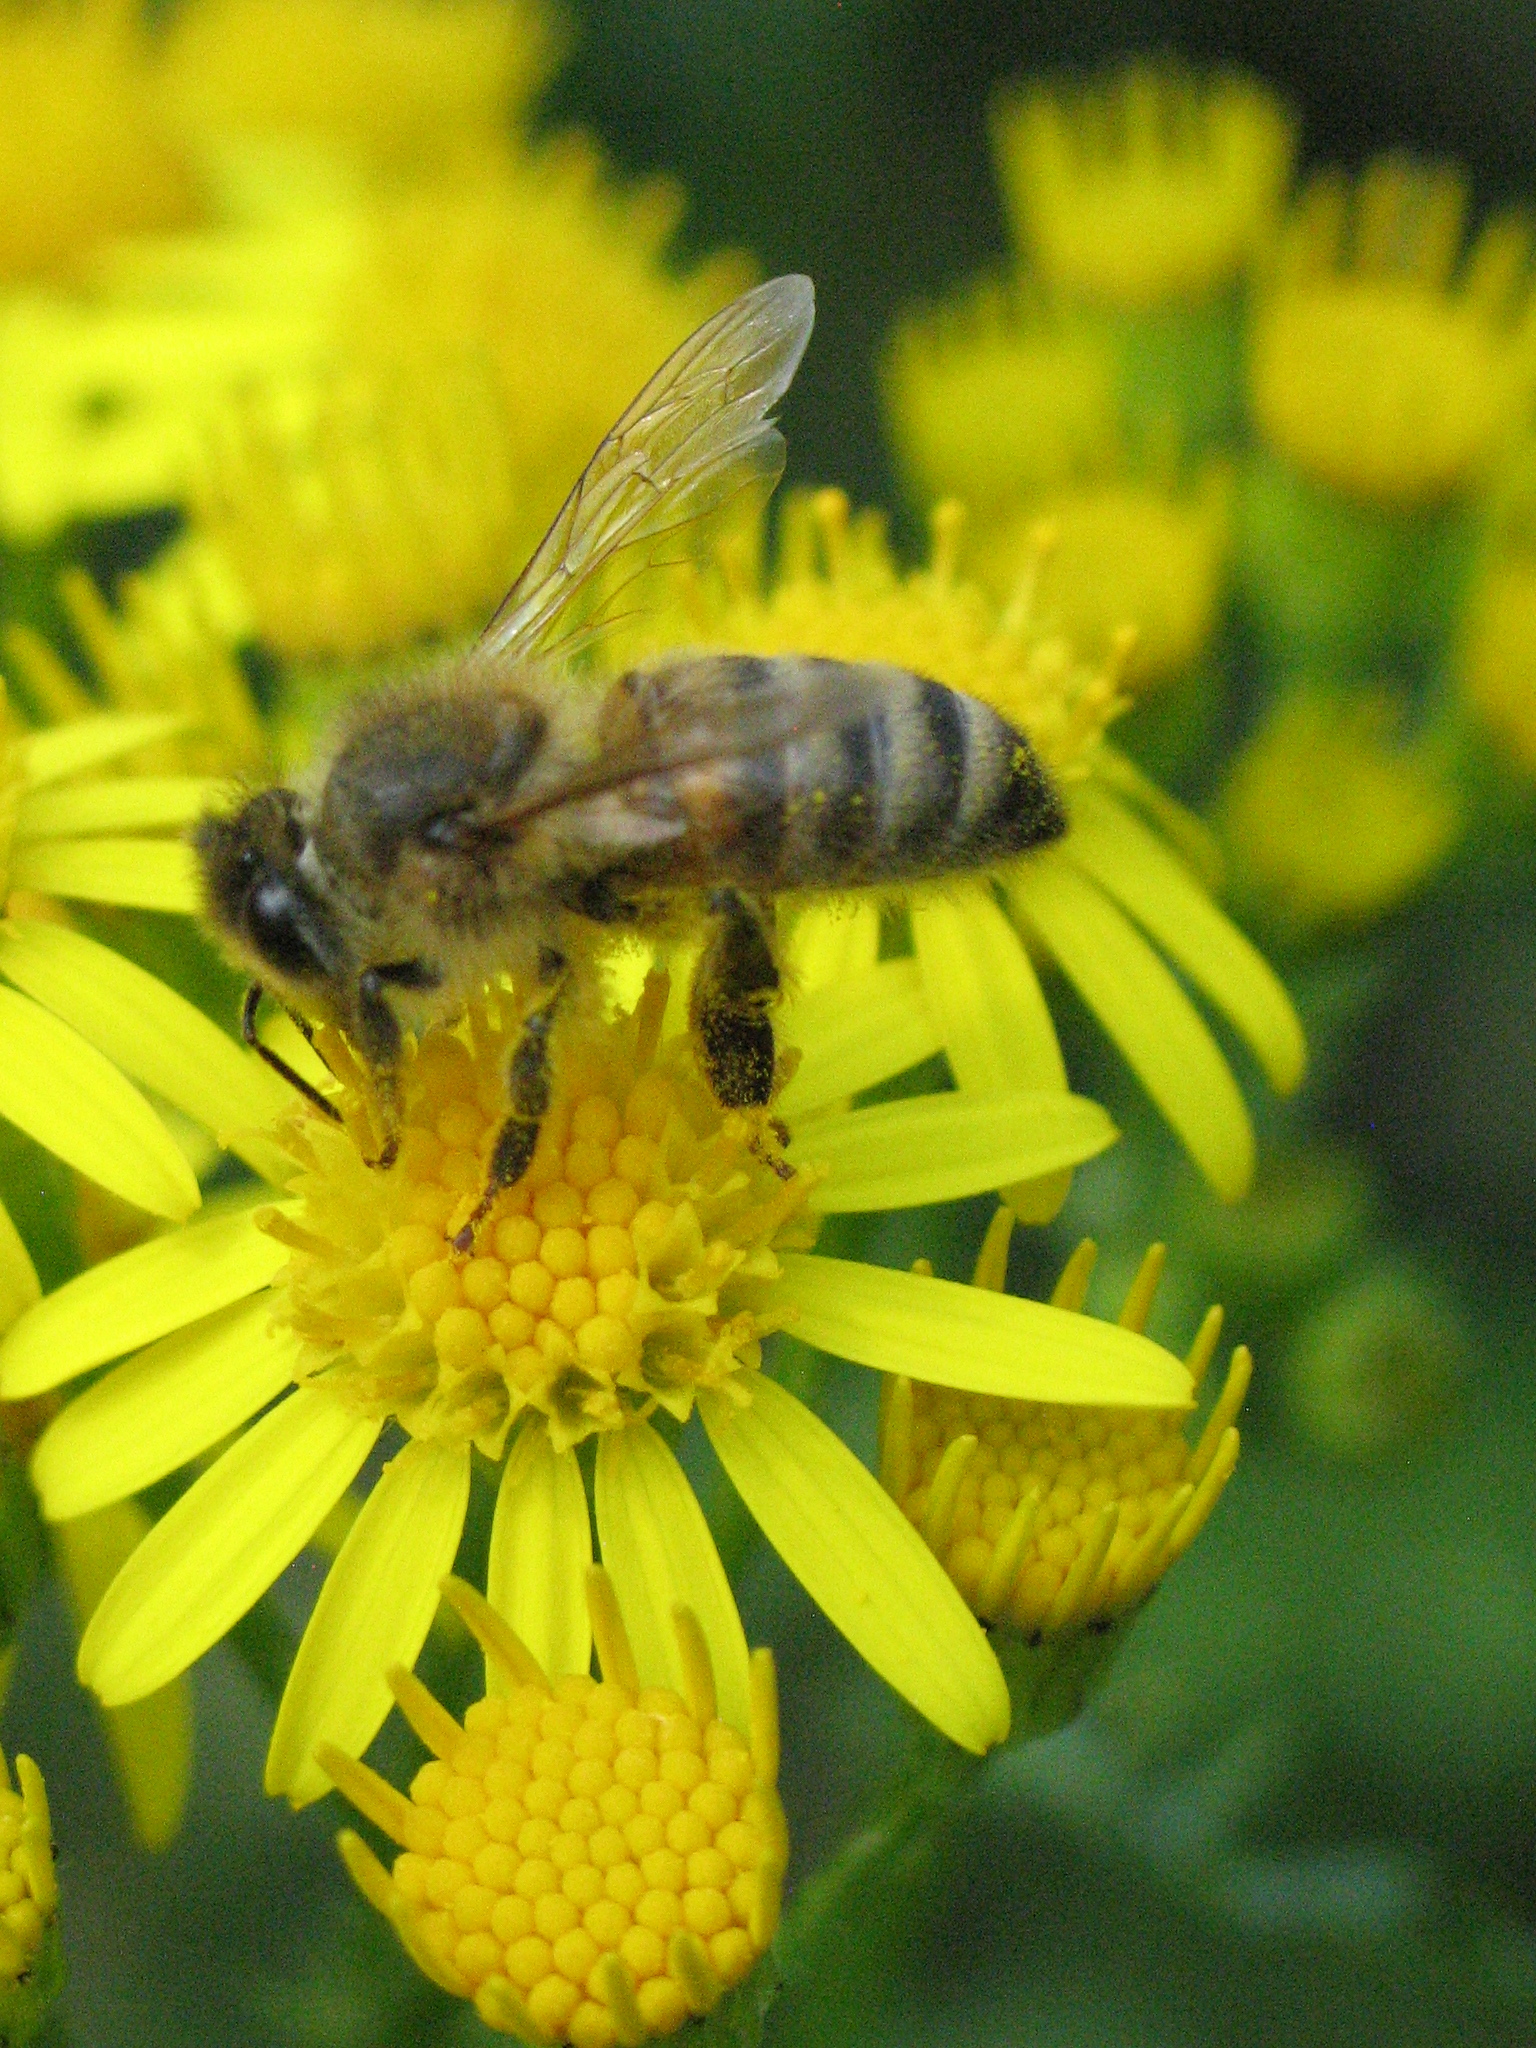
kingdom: Animalia
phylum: Arthropoda
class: Insecta
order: Hymenoptera
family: Apidae
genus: Apis
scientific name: Apis mellifera
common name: Honey bee
